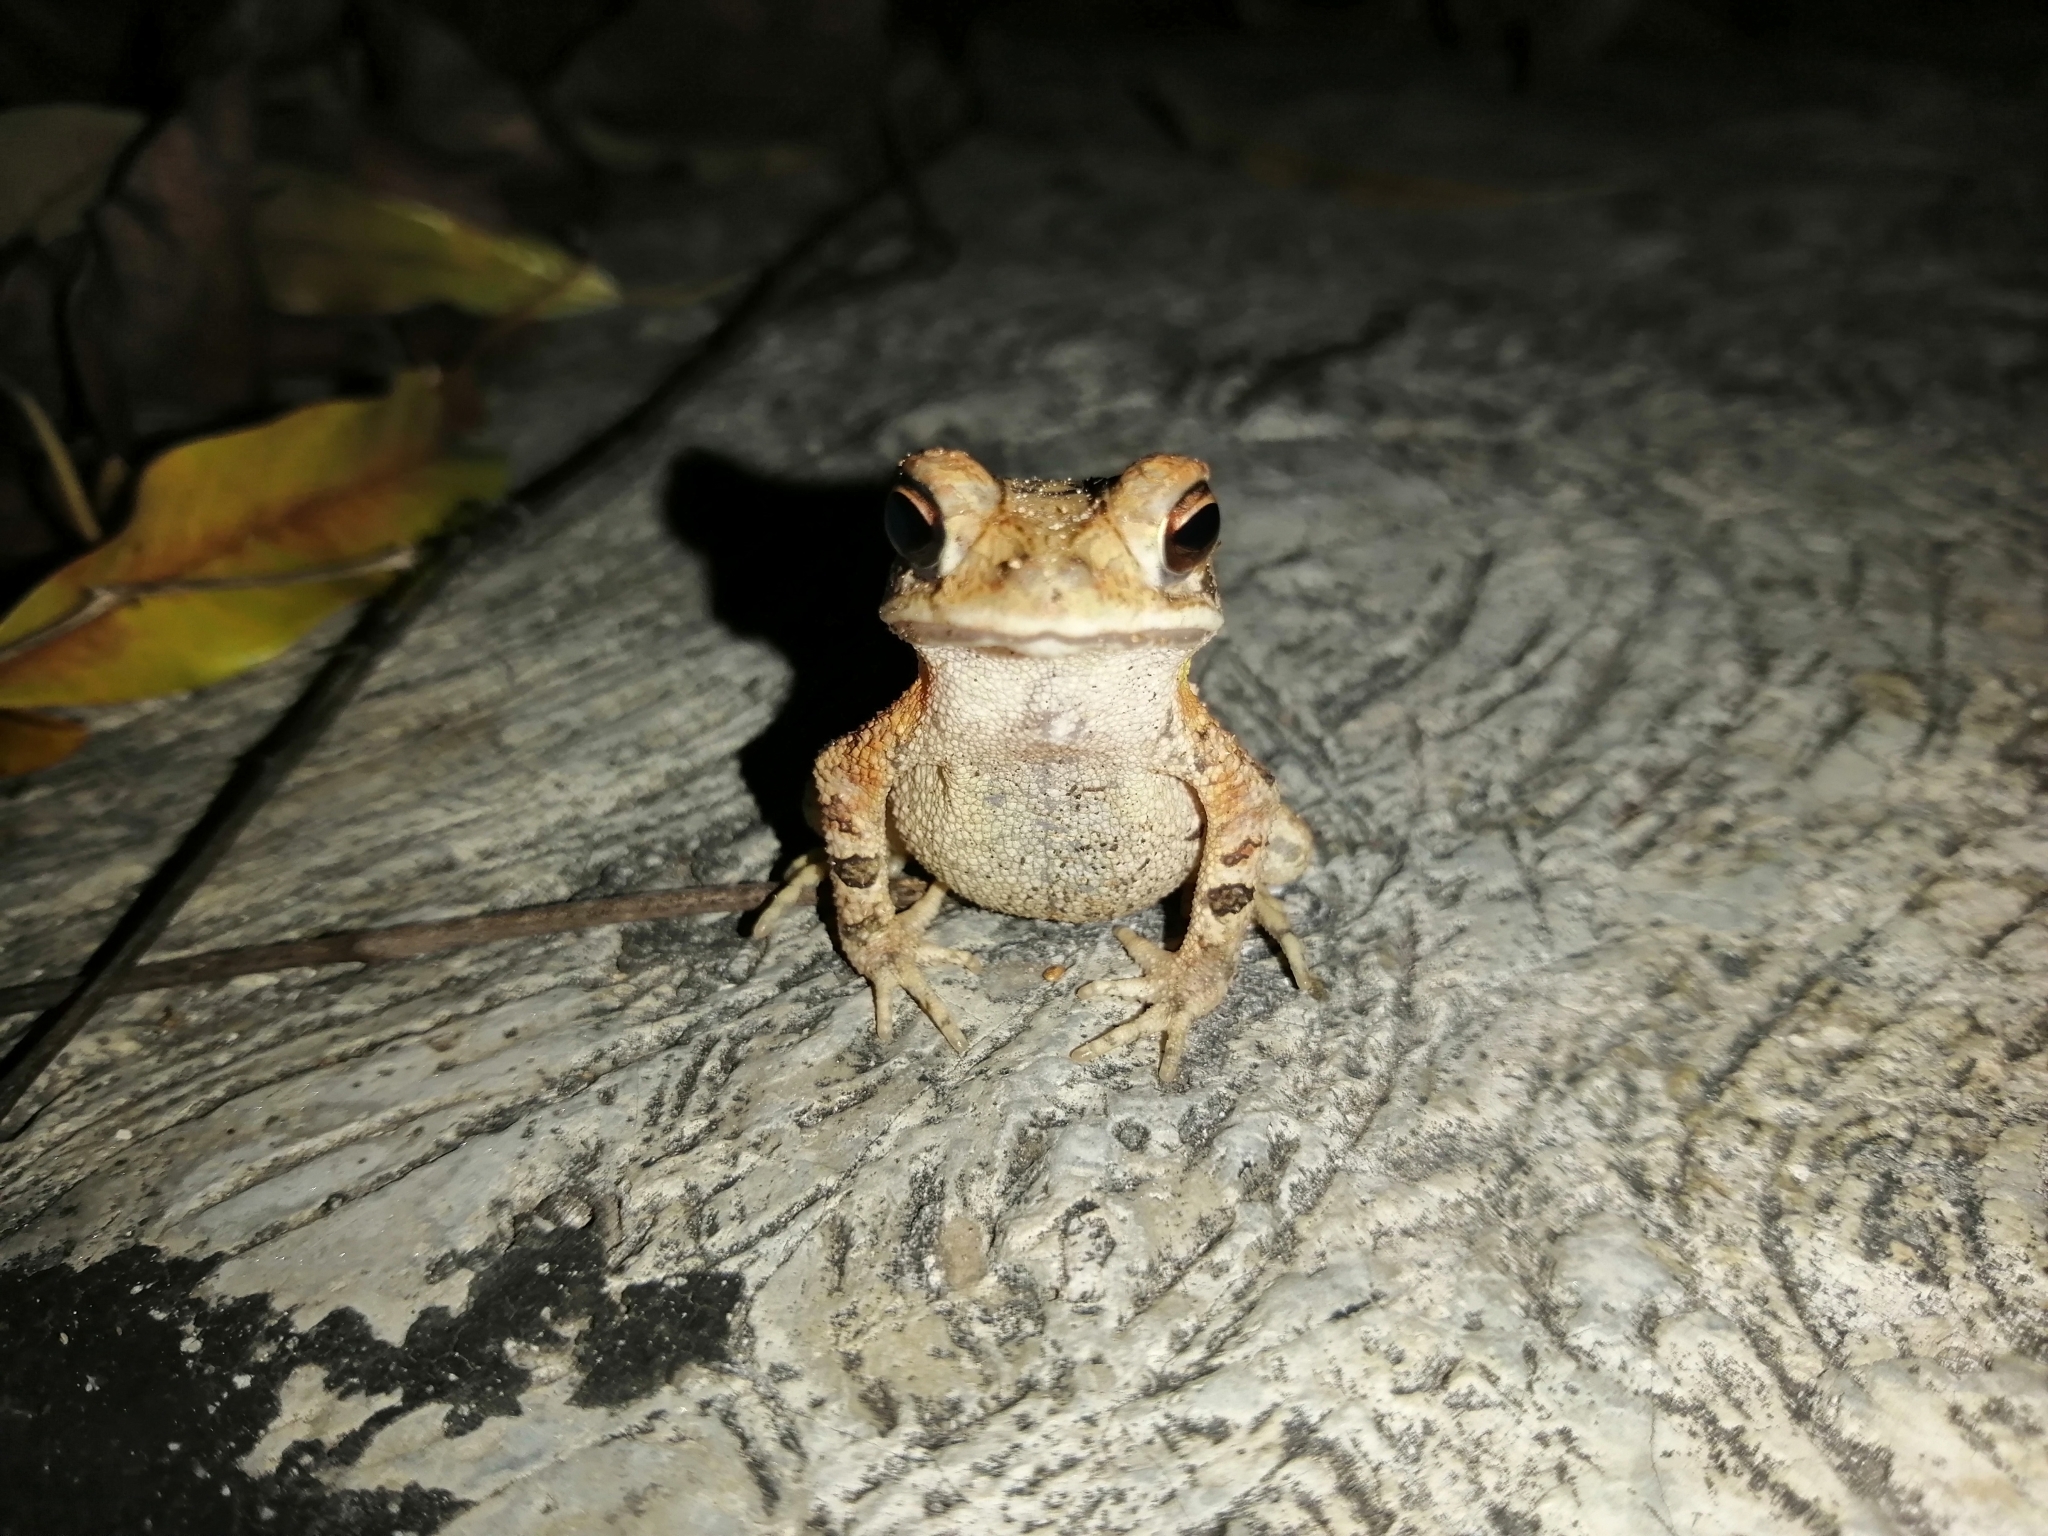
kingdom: Animalia
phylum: Chordata
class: Amphibia
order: Anura
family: Bufonidae
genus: Incilius
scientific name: Incilius valliceps
